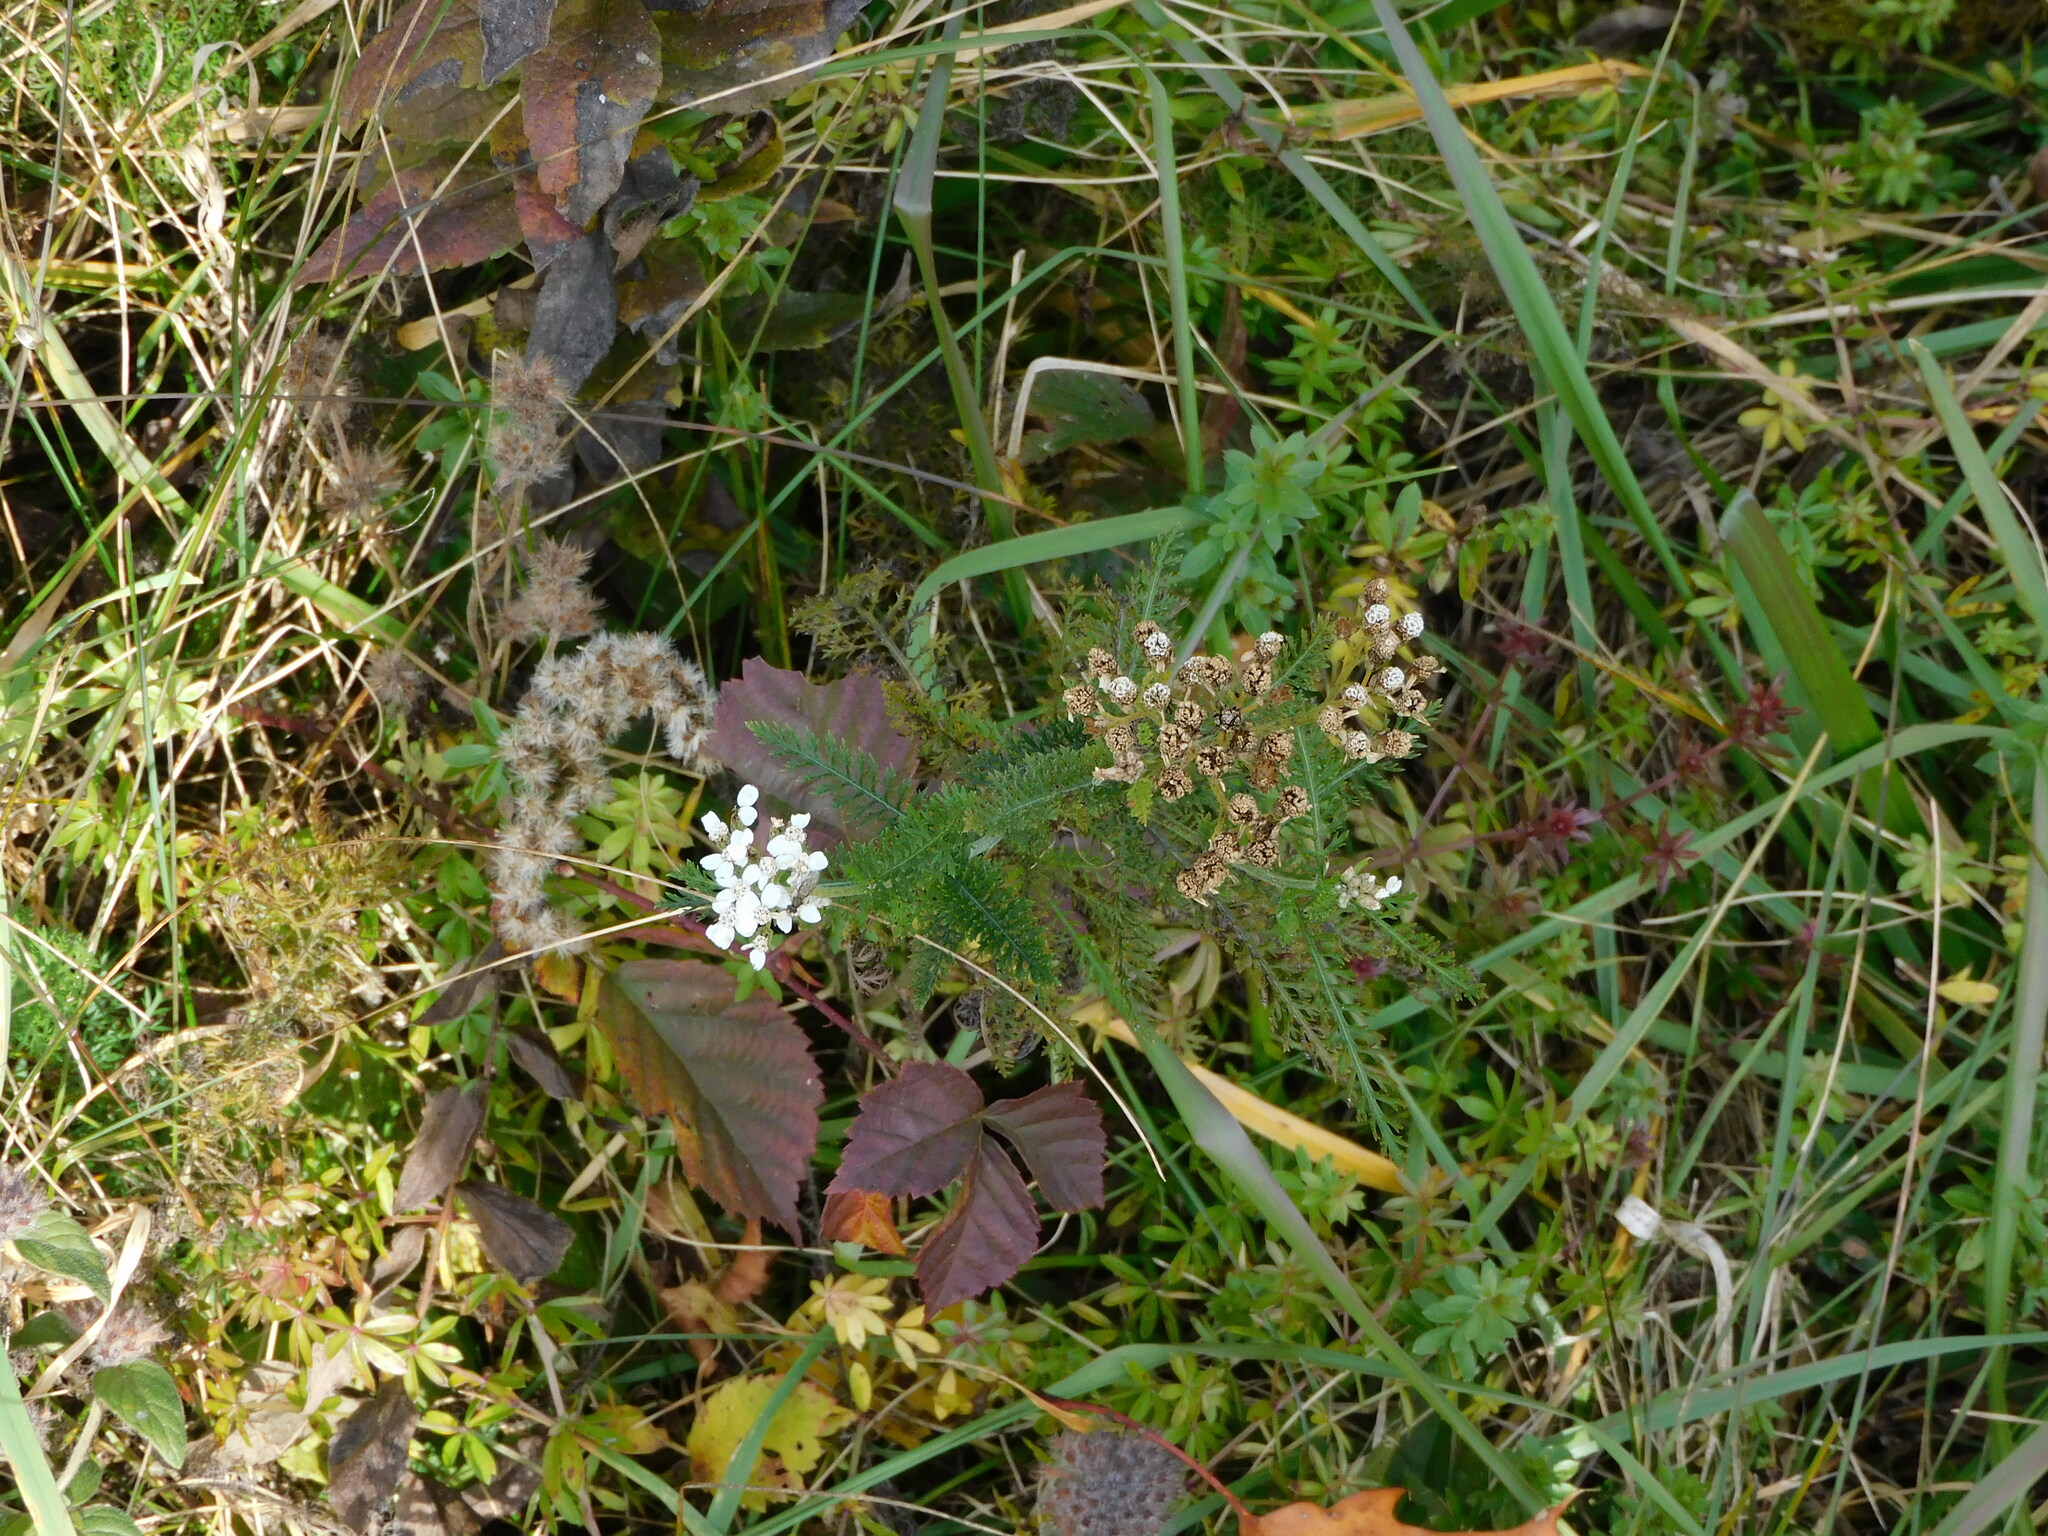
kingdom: Plantae
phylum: Tracheophyta
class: Magnoliopsida
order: Asterales
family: Asteraceae
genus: Achillea
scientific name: Achillea millefolium
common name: Yarrow
